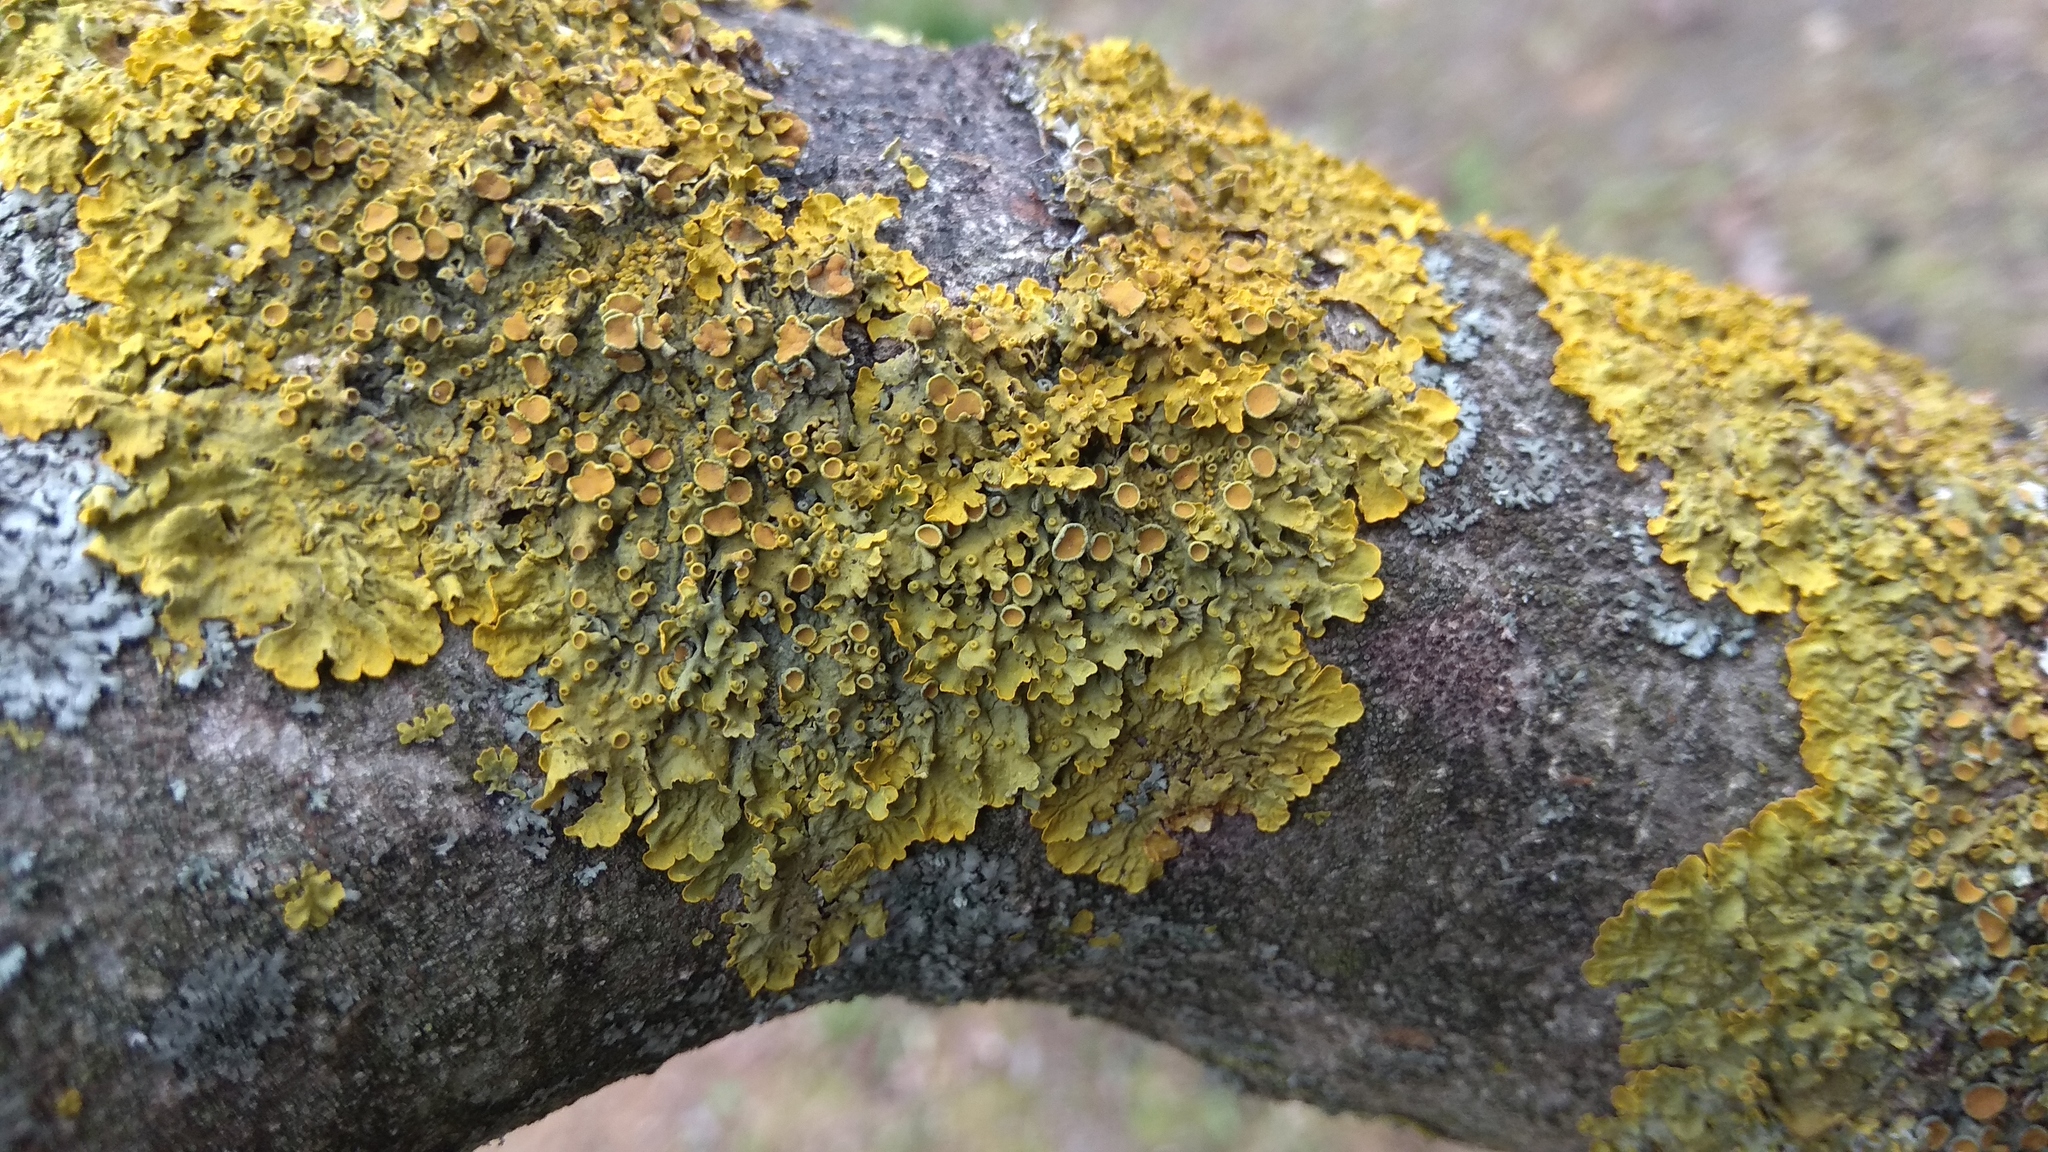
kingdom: Fungi
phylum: Ascomycota
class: Lecanoromycetes
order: Teloschistales
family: Teloschistaceae
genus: Xanthoria
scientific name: Xanthoria parietina
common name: Common orange lichen
